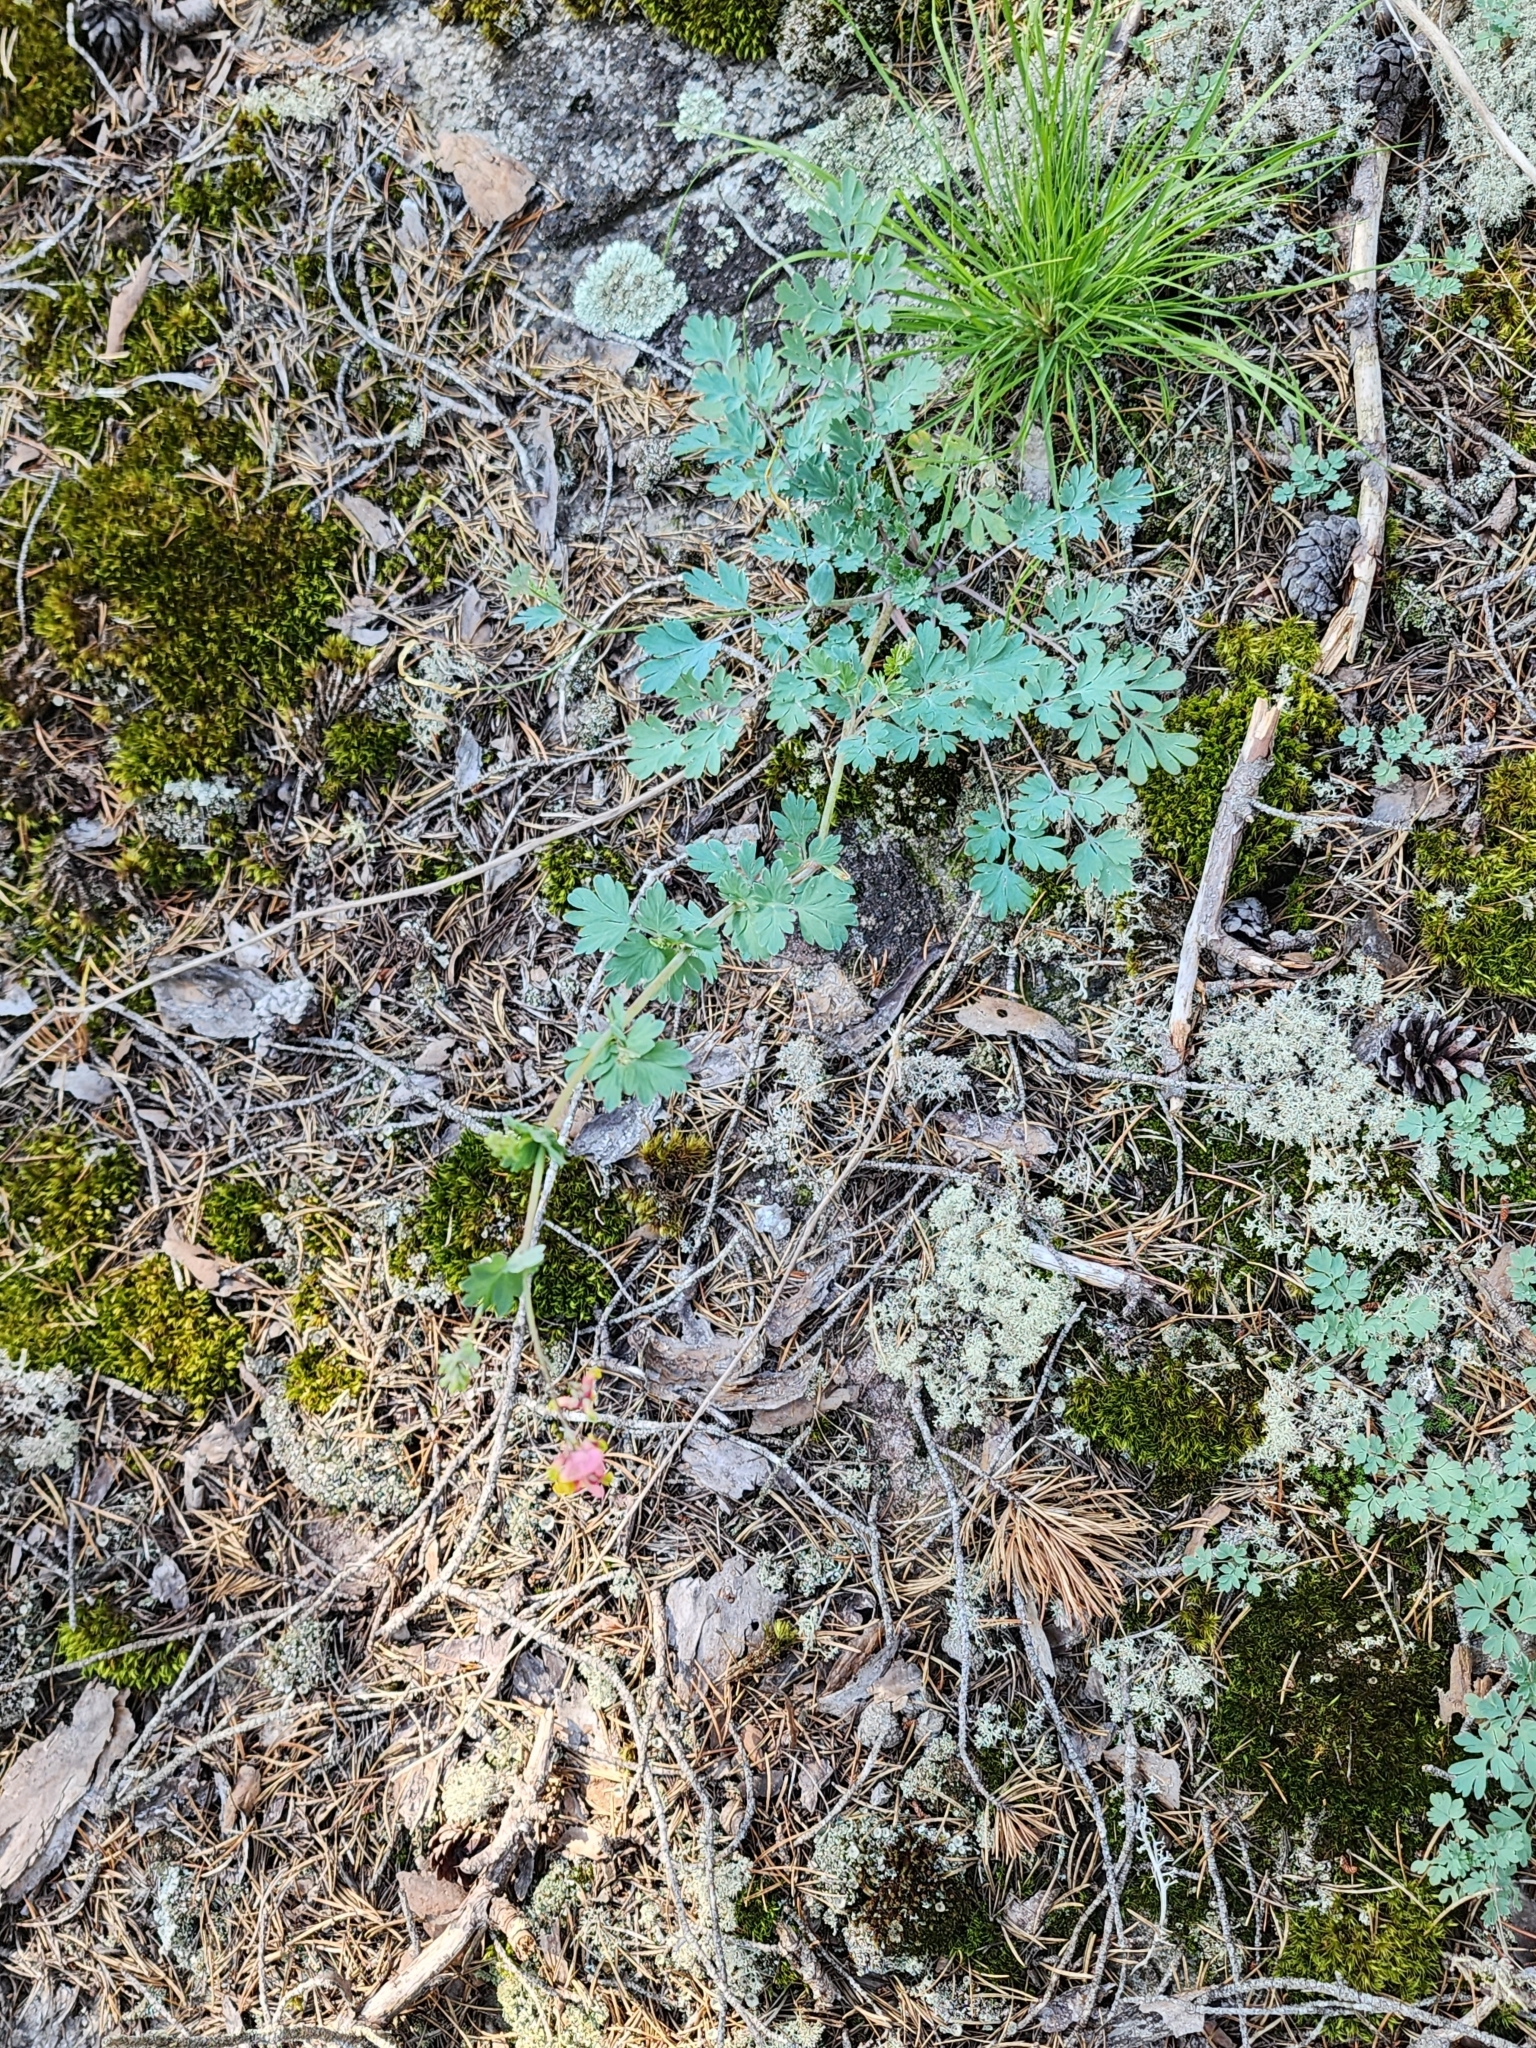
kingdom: Plantae
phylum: Tracheophyta
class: Magnoliopsida
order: Ranunculales
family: Papaveraceae
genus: Capnoides
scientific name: Capnoides sempervirens
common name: Rock harlequin
